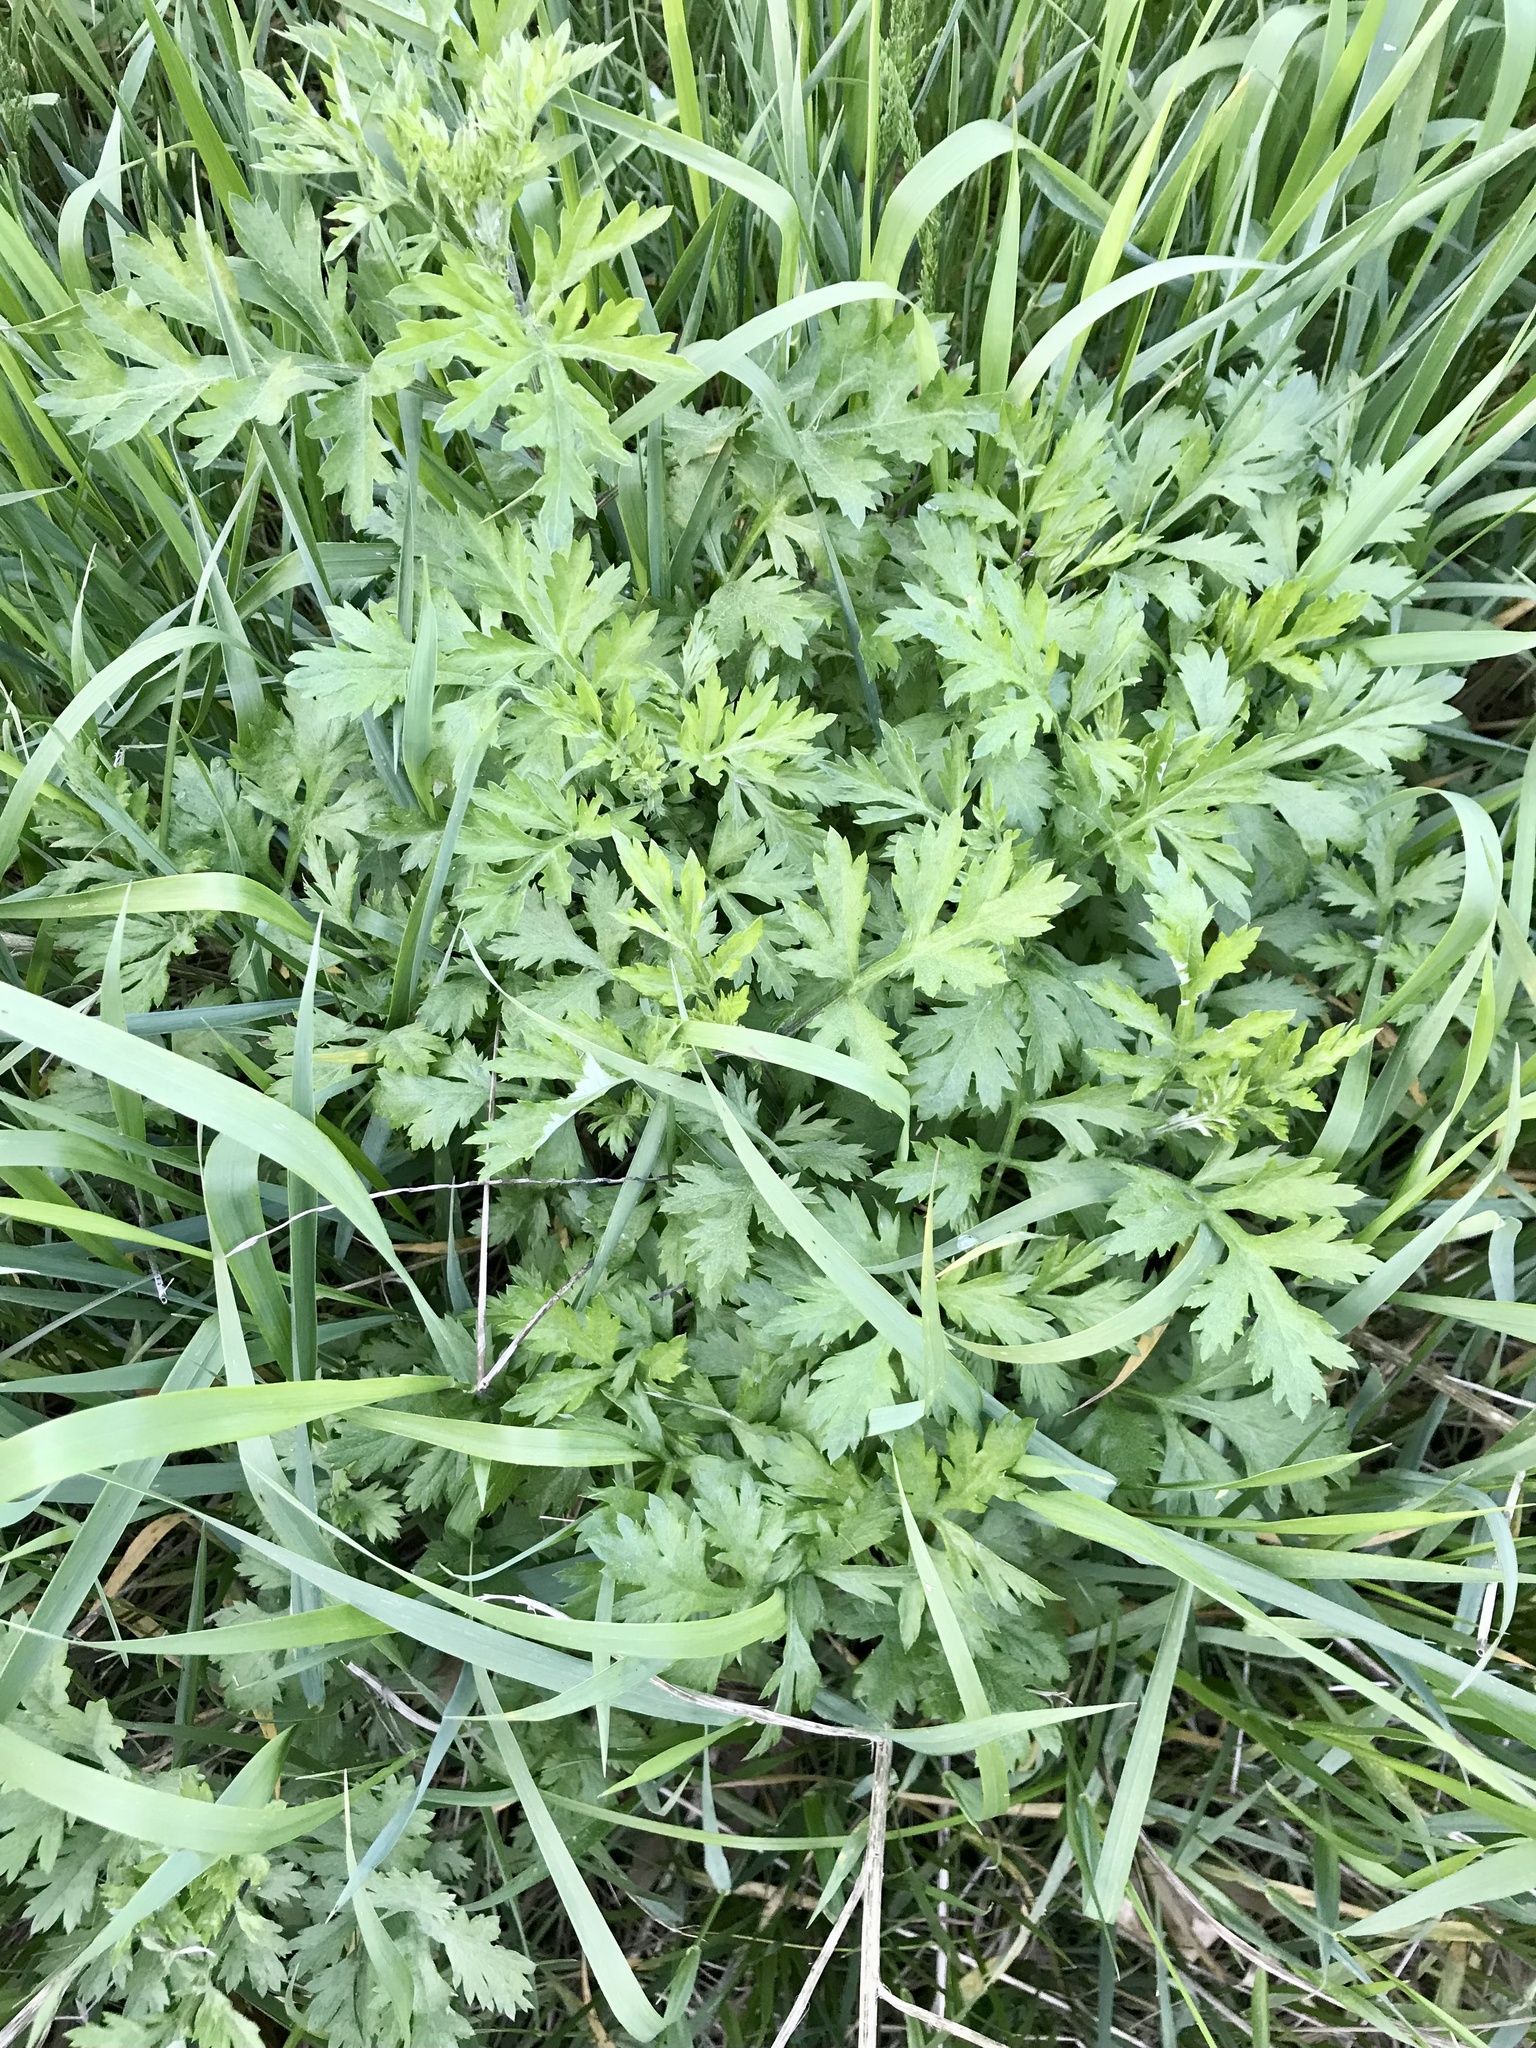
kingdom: Plantae
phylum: Tracheophyta
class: Magnoliopsida
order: Asterales
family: Asteraceae
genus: Artemisia
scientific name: Artemisia vulgaris
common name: Mugwort
